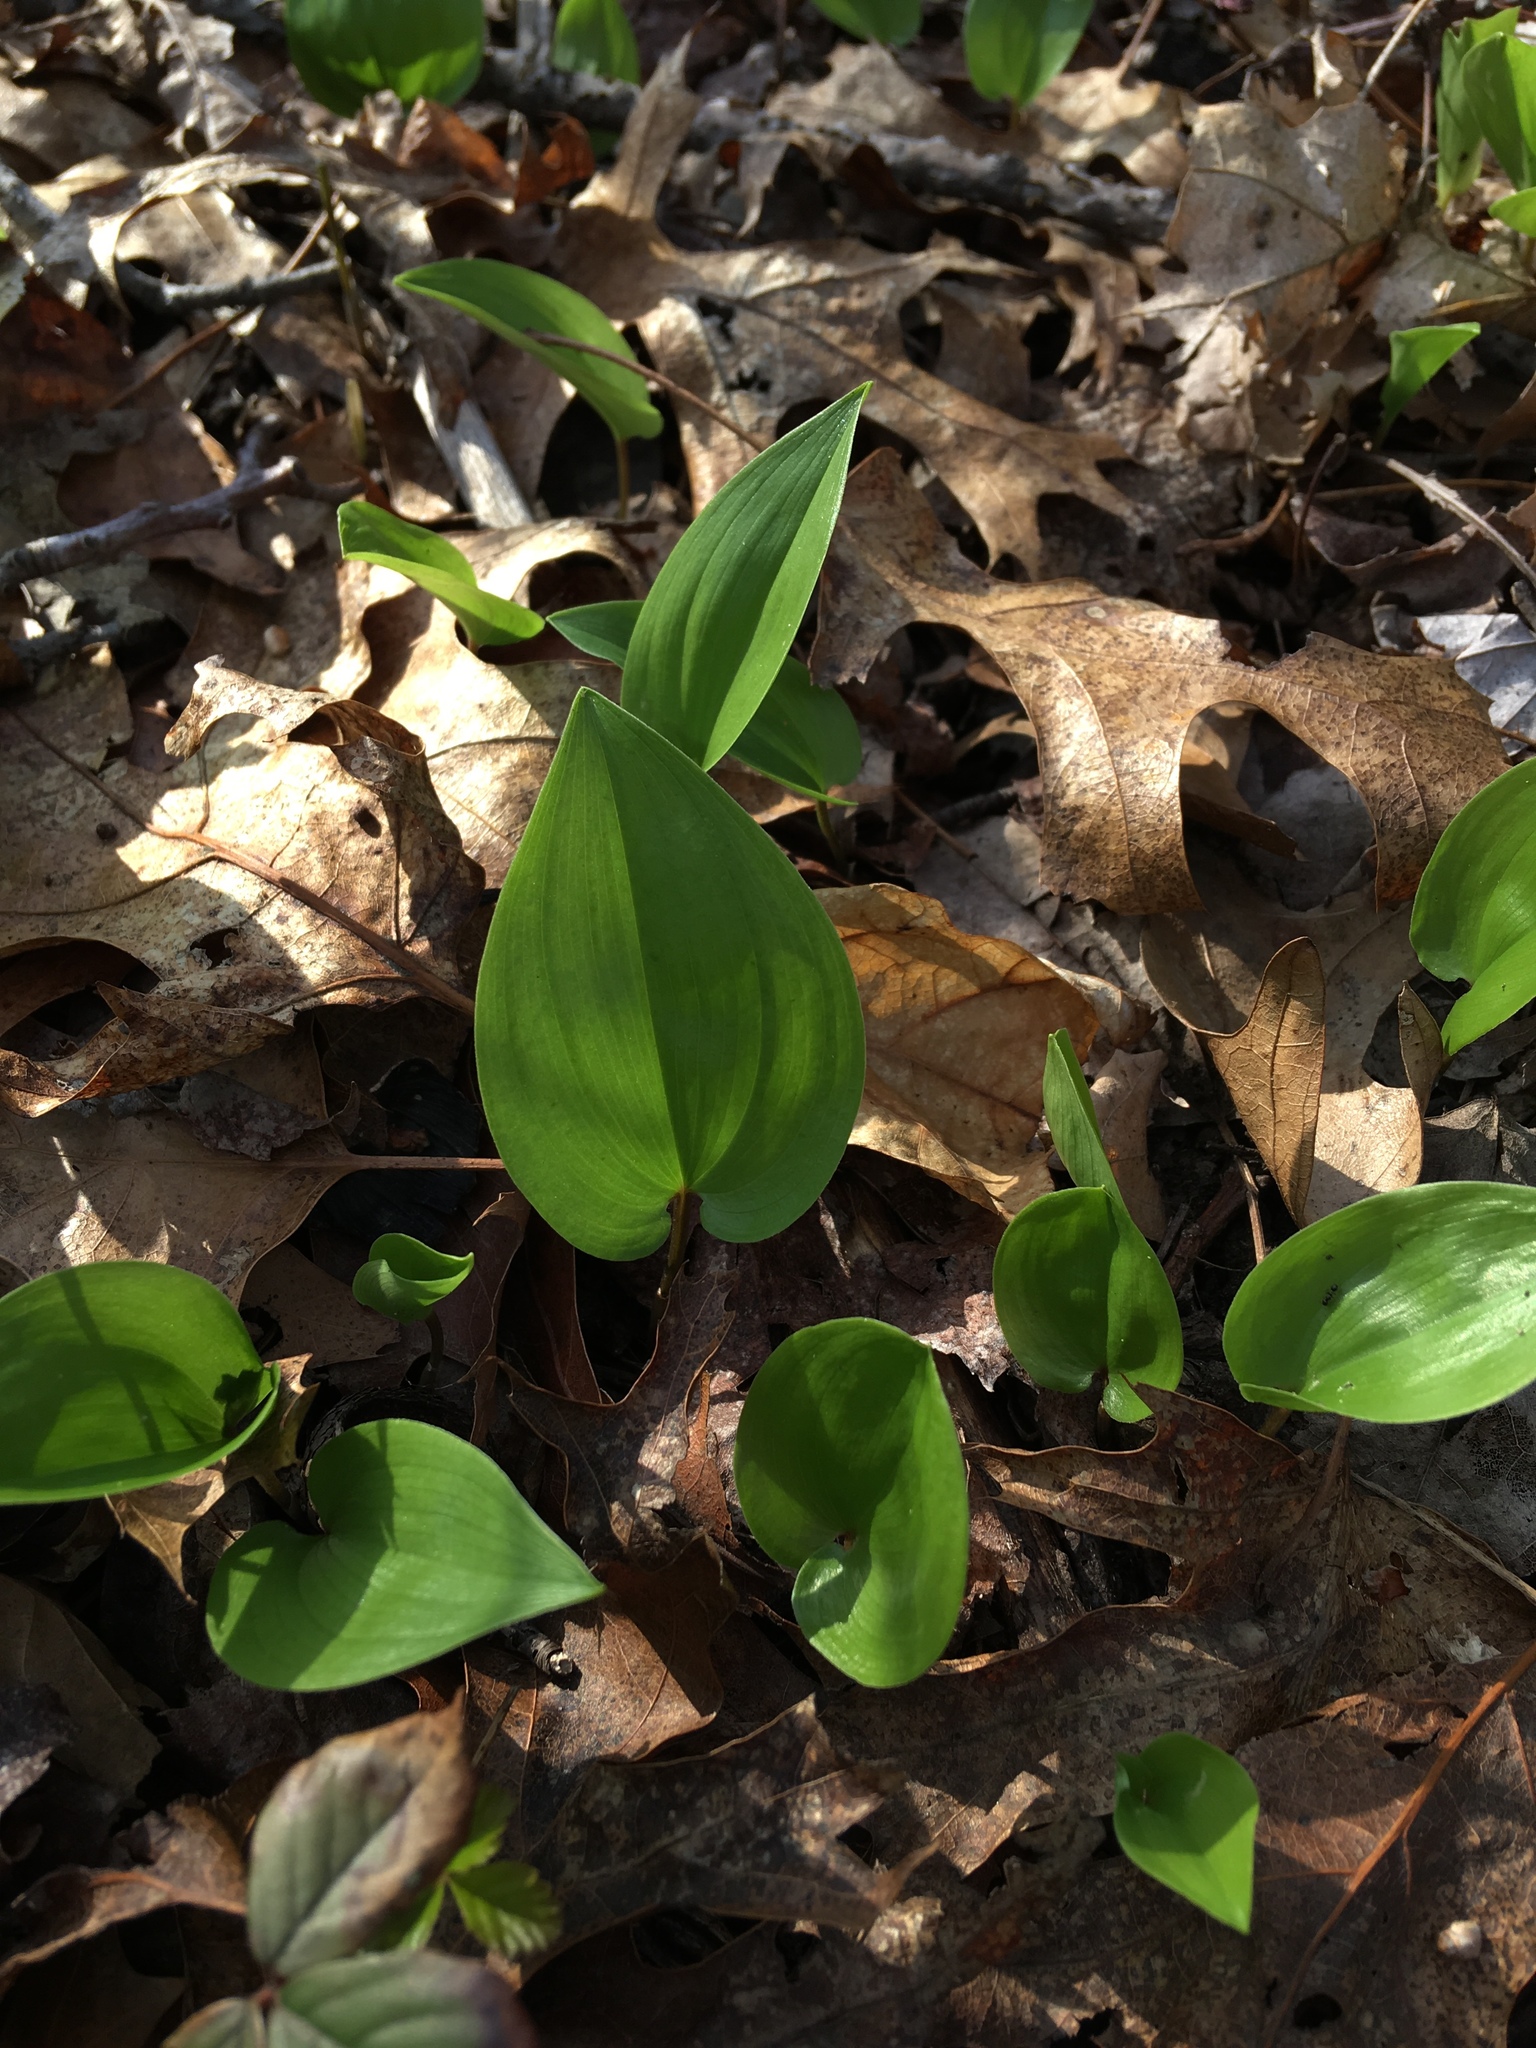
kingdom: Plantae
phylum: Tracheophyta
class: Liliopsida
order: Asparagales
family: Asparagaceae
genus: Maianthemum
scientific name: Maianthemum canadense
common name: False lily-of-the-valley
